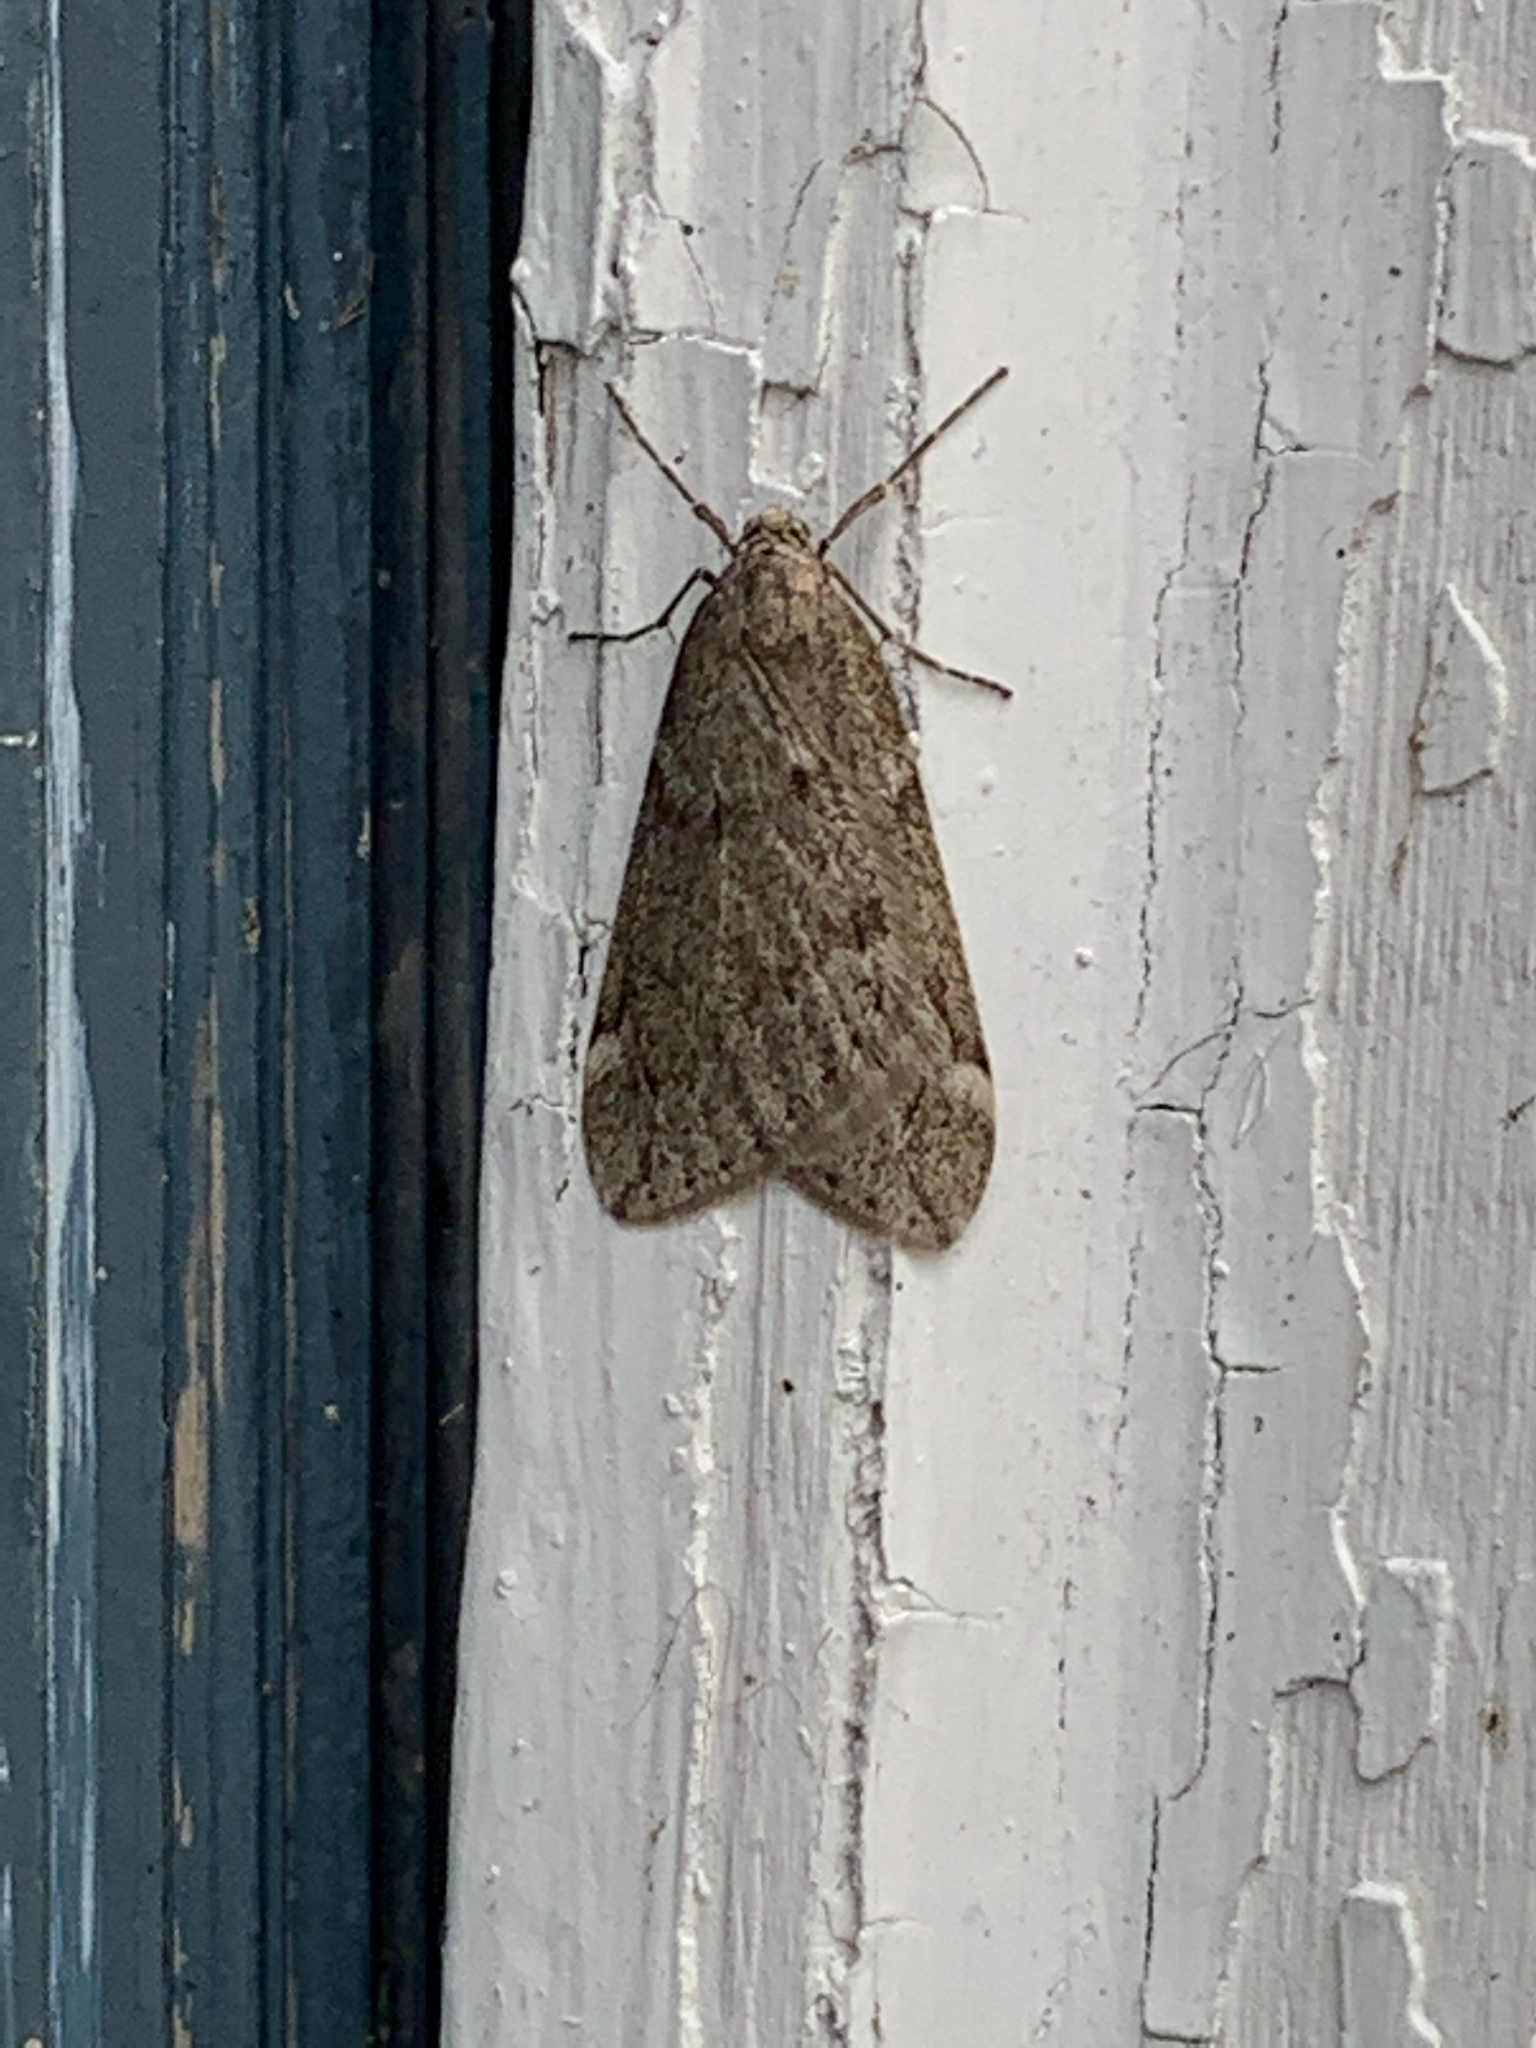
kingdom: Animalia
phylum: Arthropoda
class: Insecta
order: Lepidoptera
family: Geometridae
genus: Alsophila
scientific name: Alsophila pometaria
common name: Fall cankerworm
